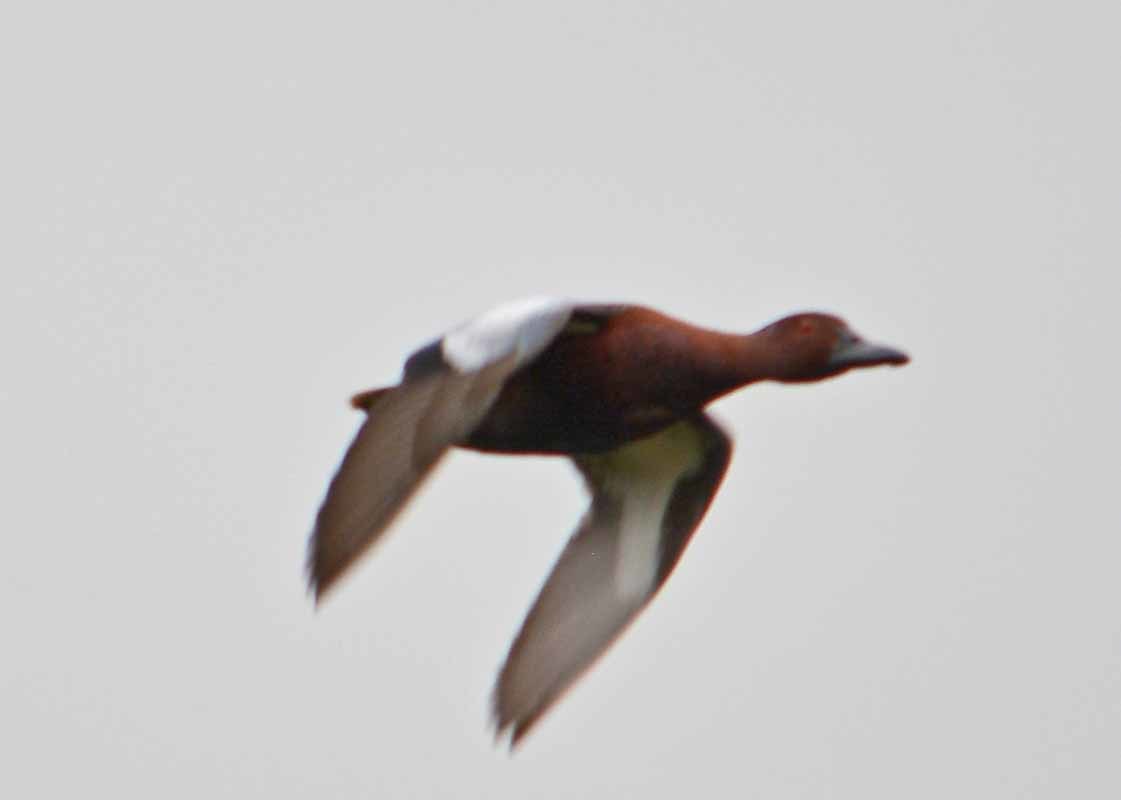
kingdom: Animalia
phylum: Chordata
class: Aves
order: Anseriformes
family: Anatidae
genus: Spatula
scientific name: Spatula cyanoptera
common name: Cinnamon teal
